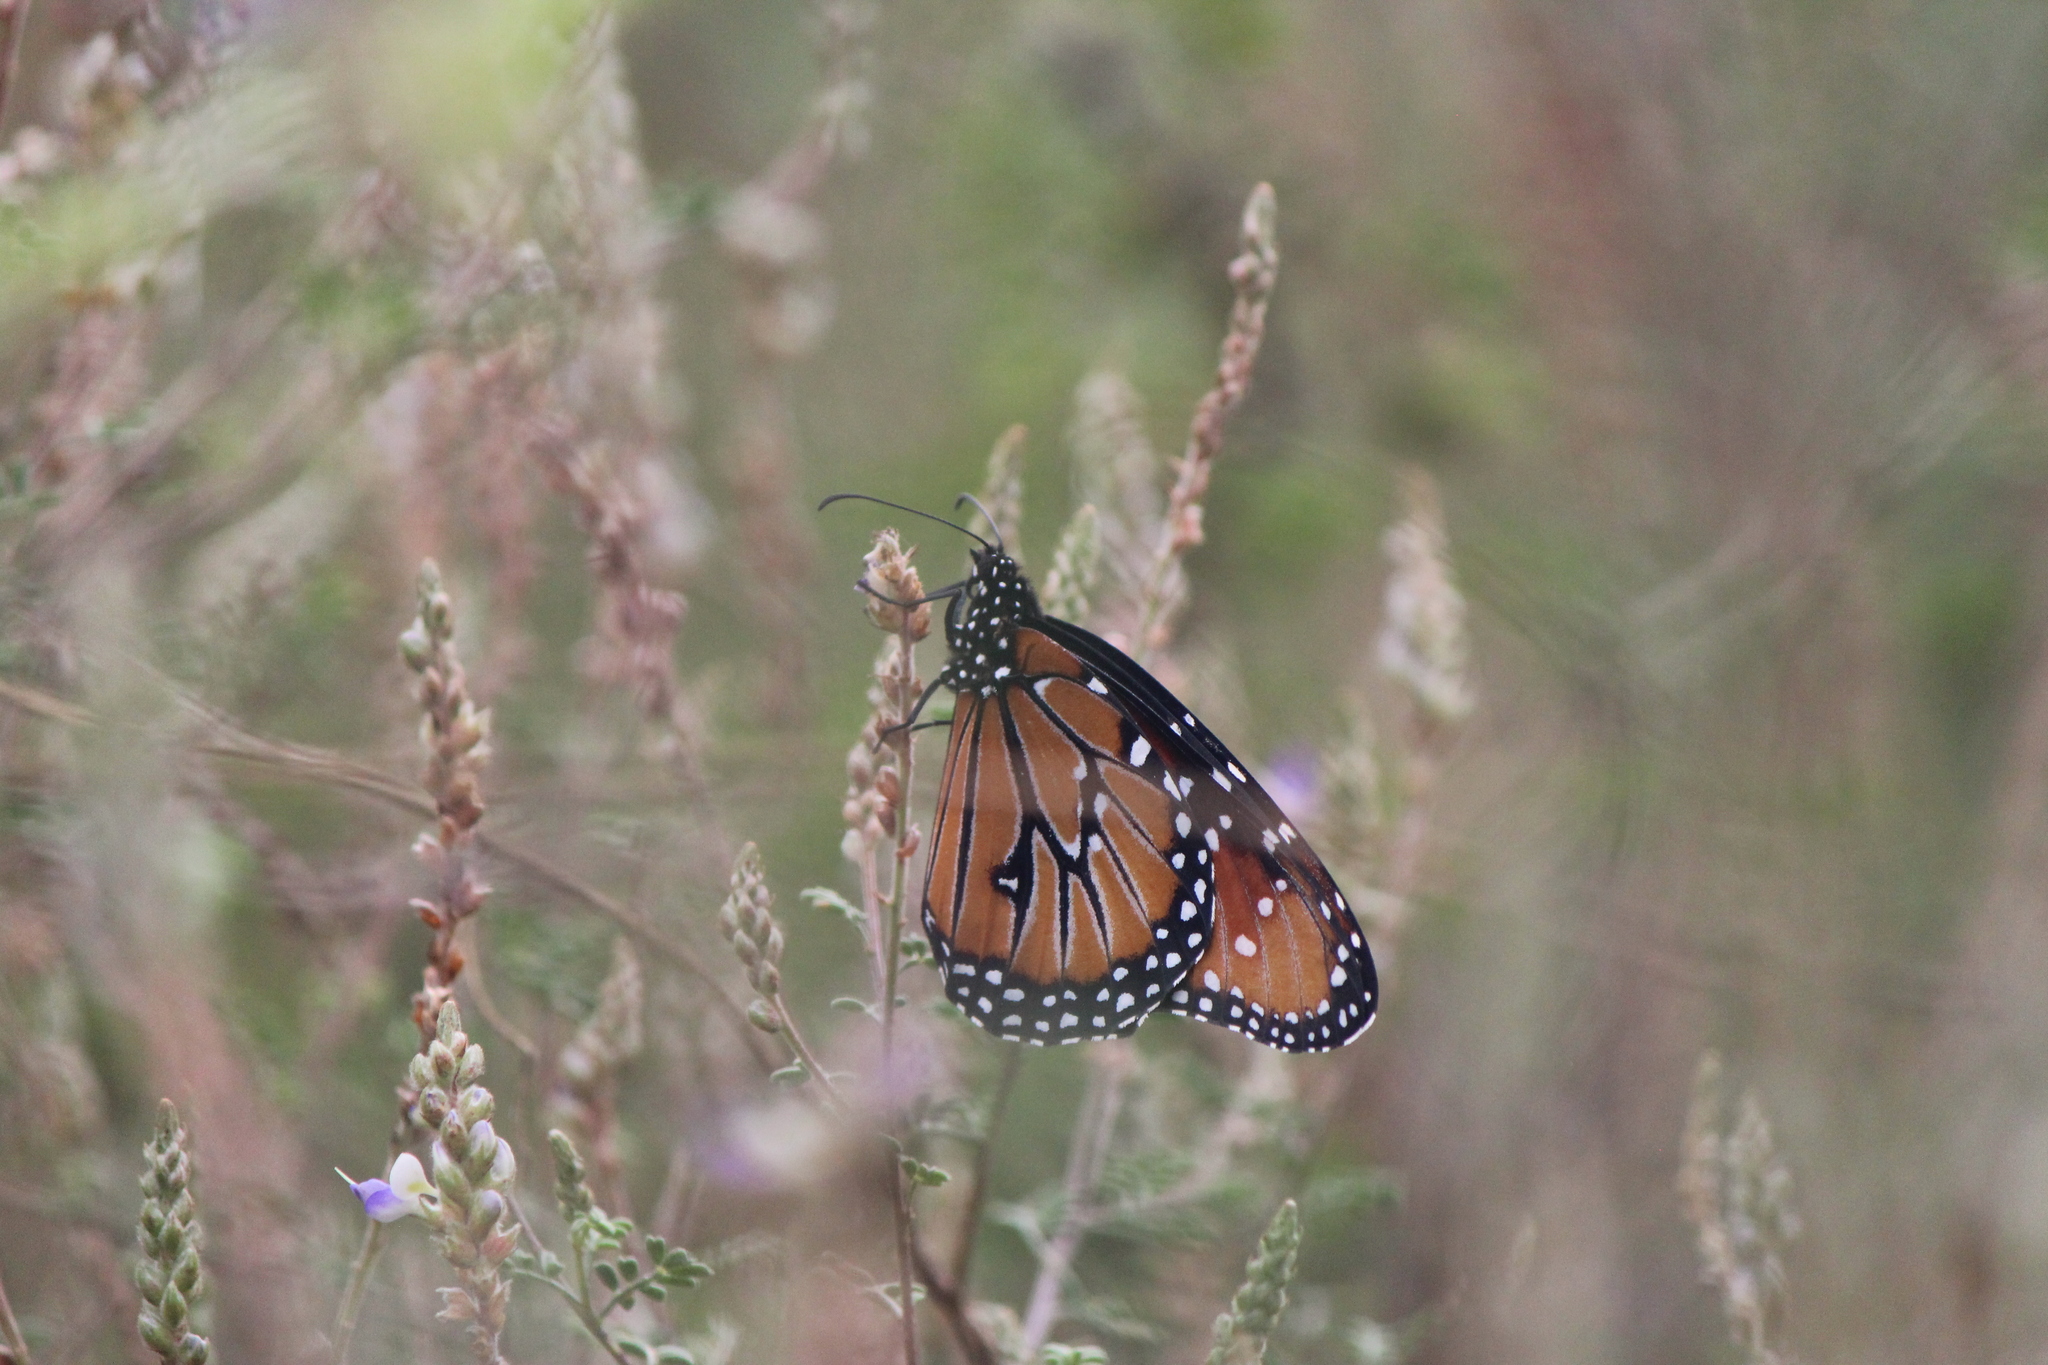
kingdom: Animalia
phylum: Arthropoda
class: Insecta
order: Lepidoptera
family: Nymphalidae
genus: Danaus
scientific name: Danaus gilippus
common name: Queen
